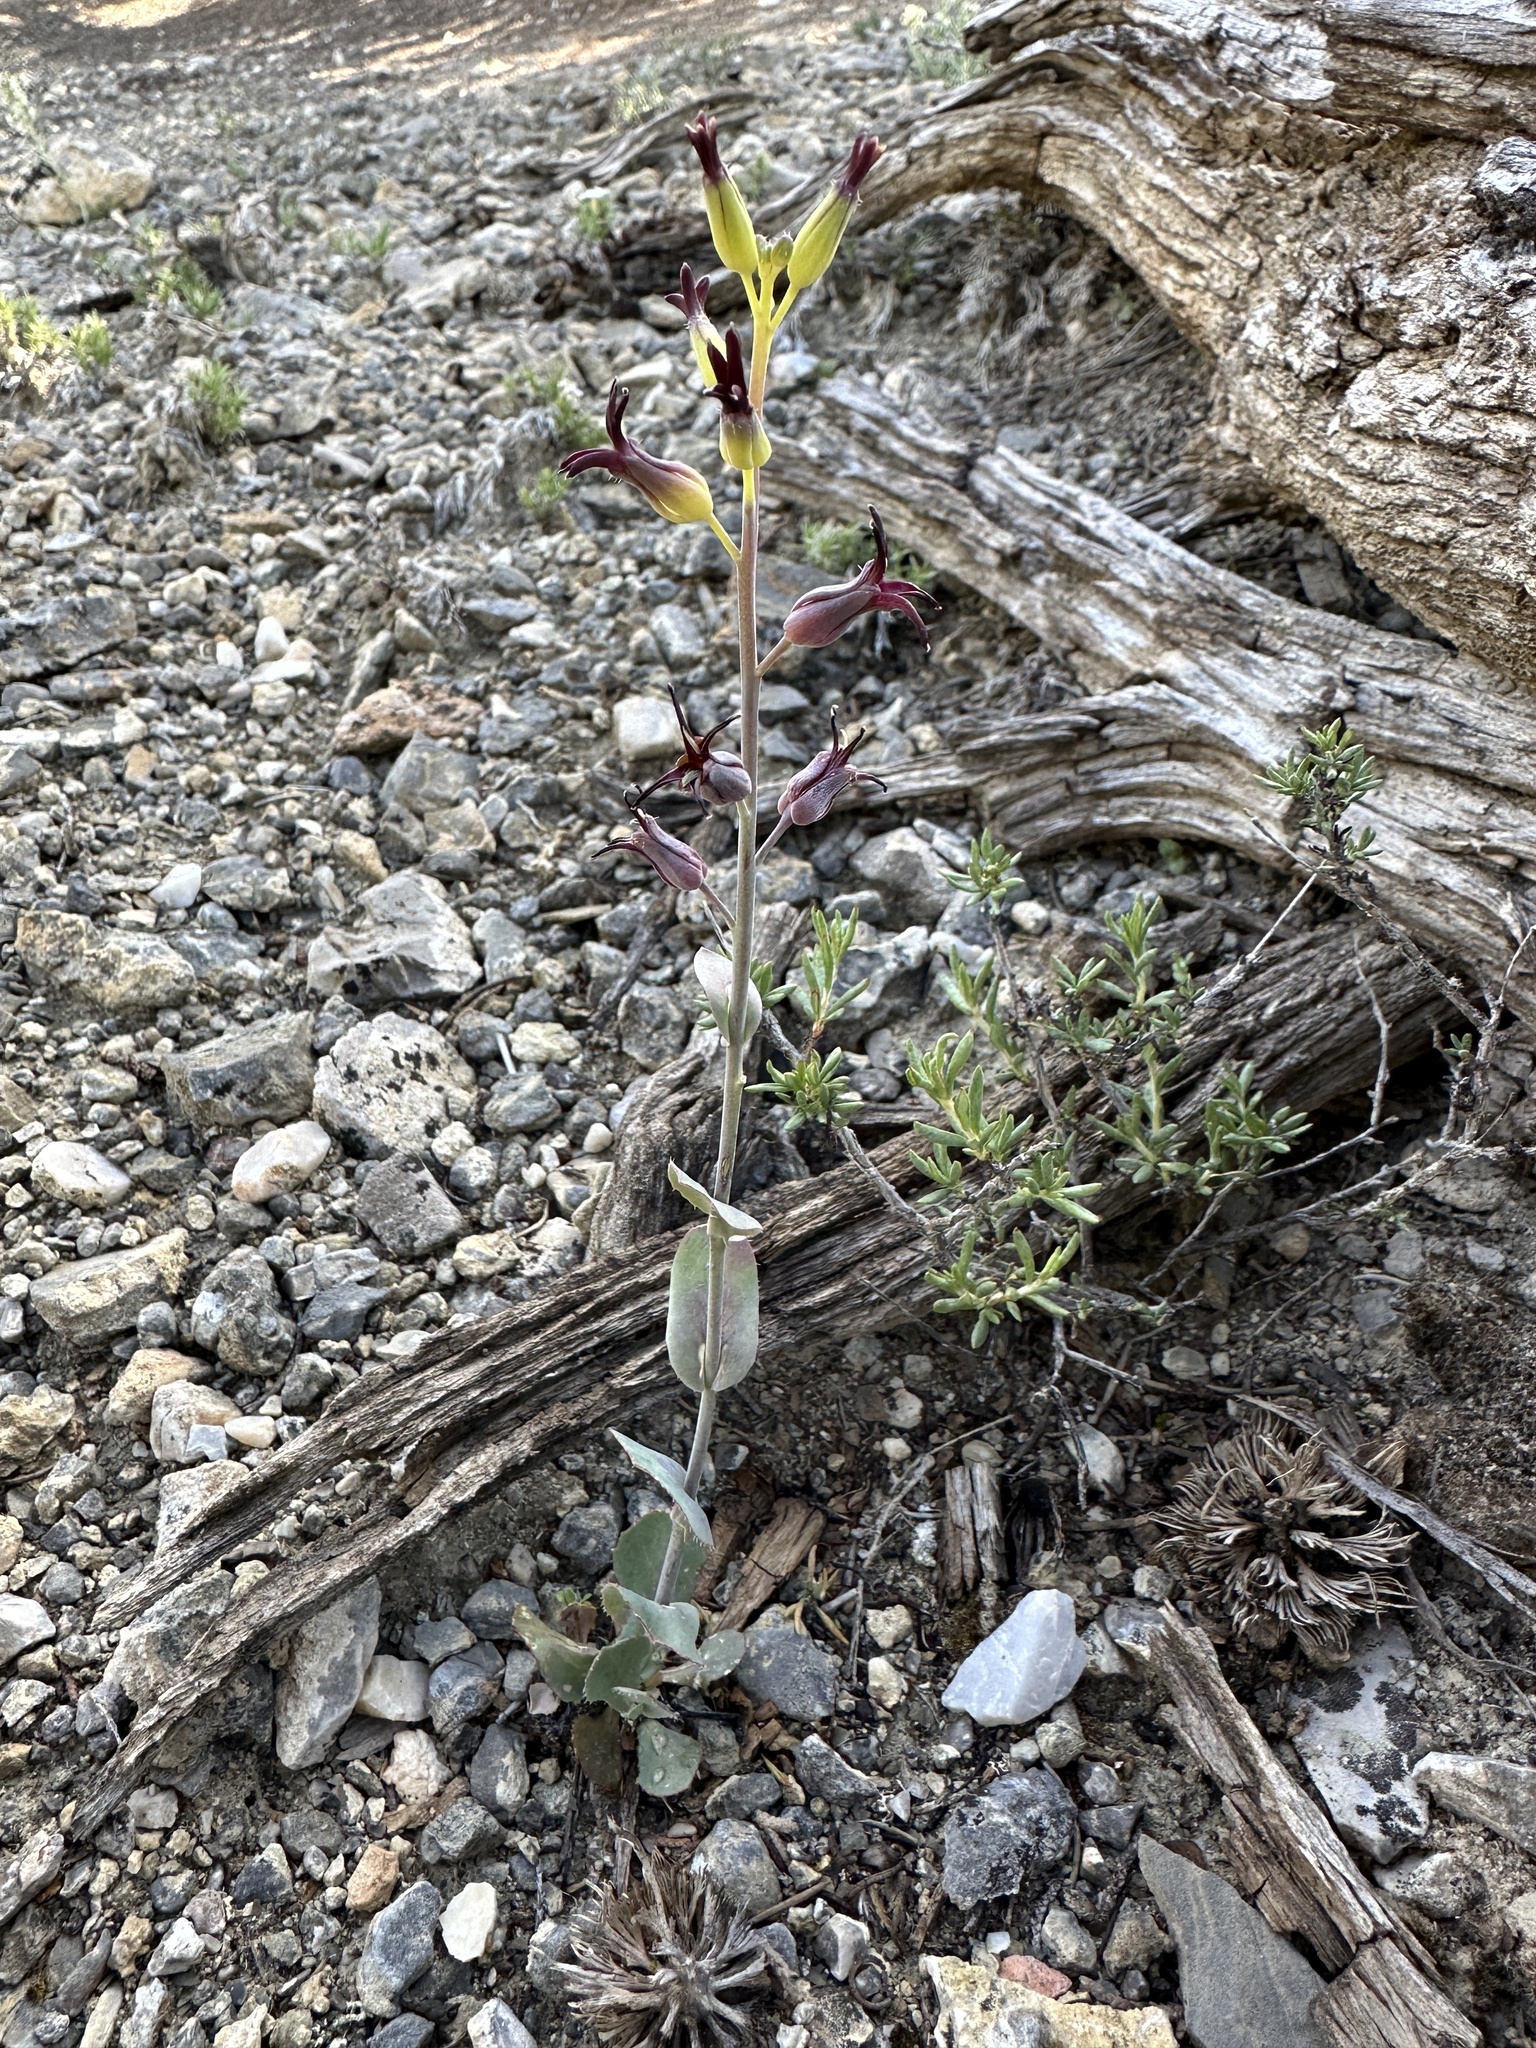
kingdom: Plantae
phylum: Tracheophyta
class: Magnoliopsida
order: Brassicales
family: Brassicaceae
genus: Streptanthus
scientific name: Streptanthus cordatus
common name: Heart-leaf jewel-flower
